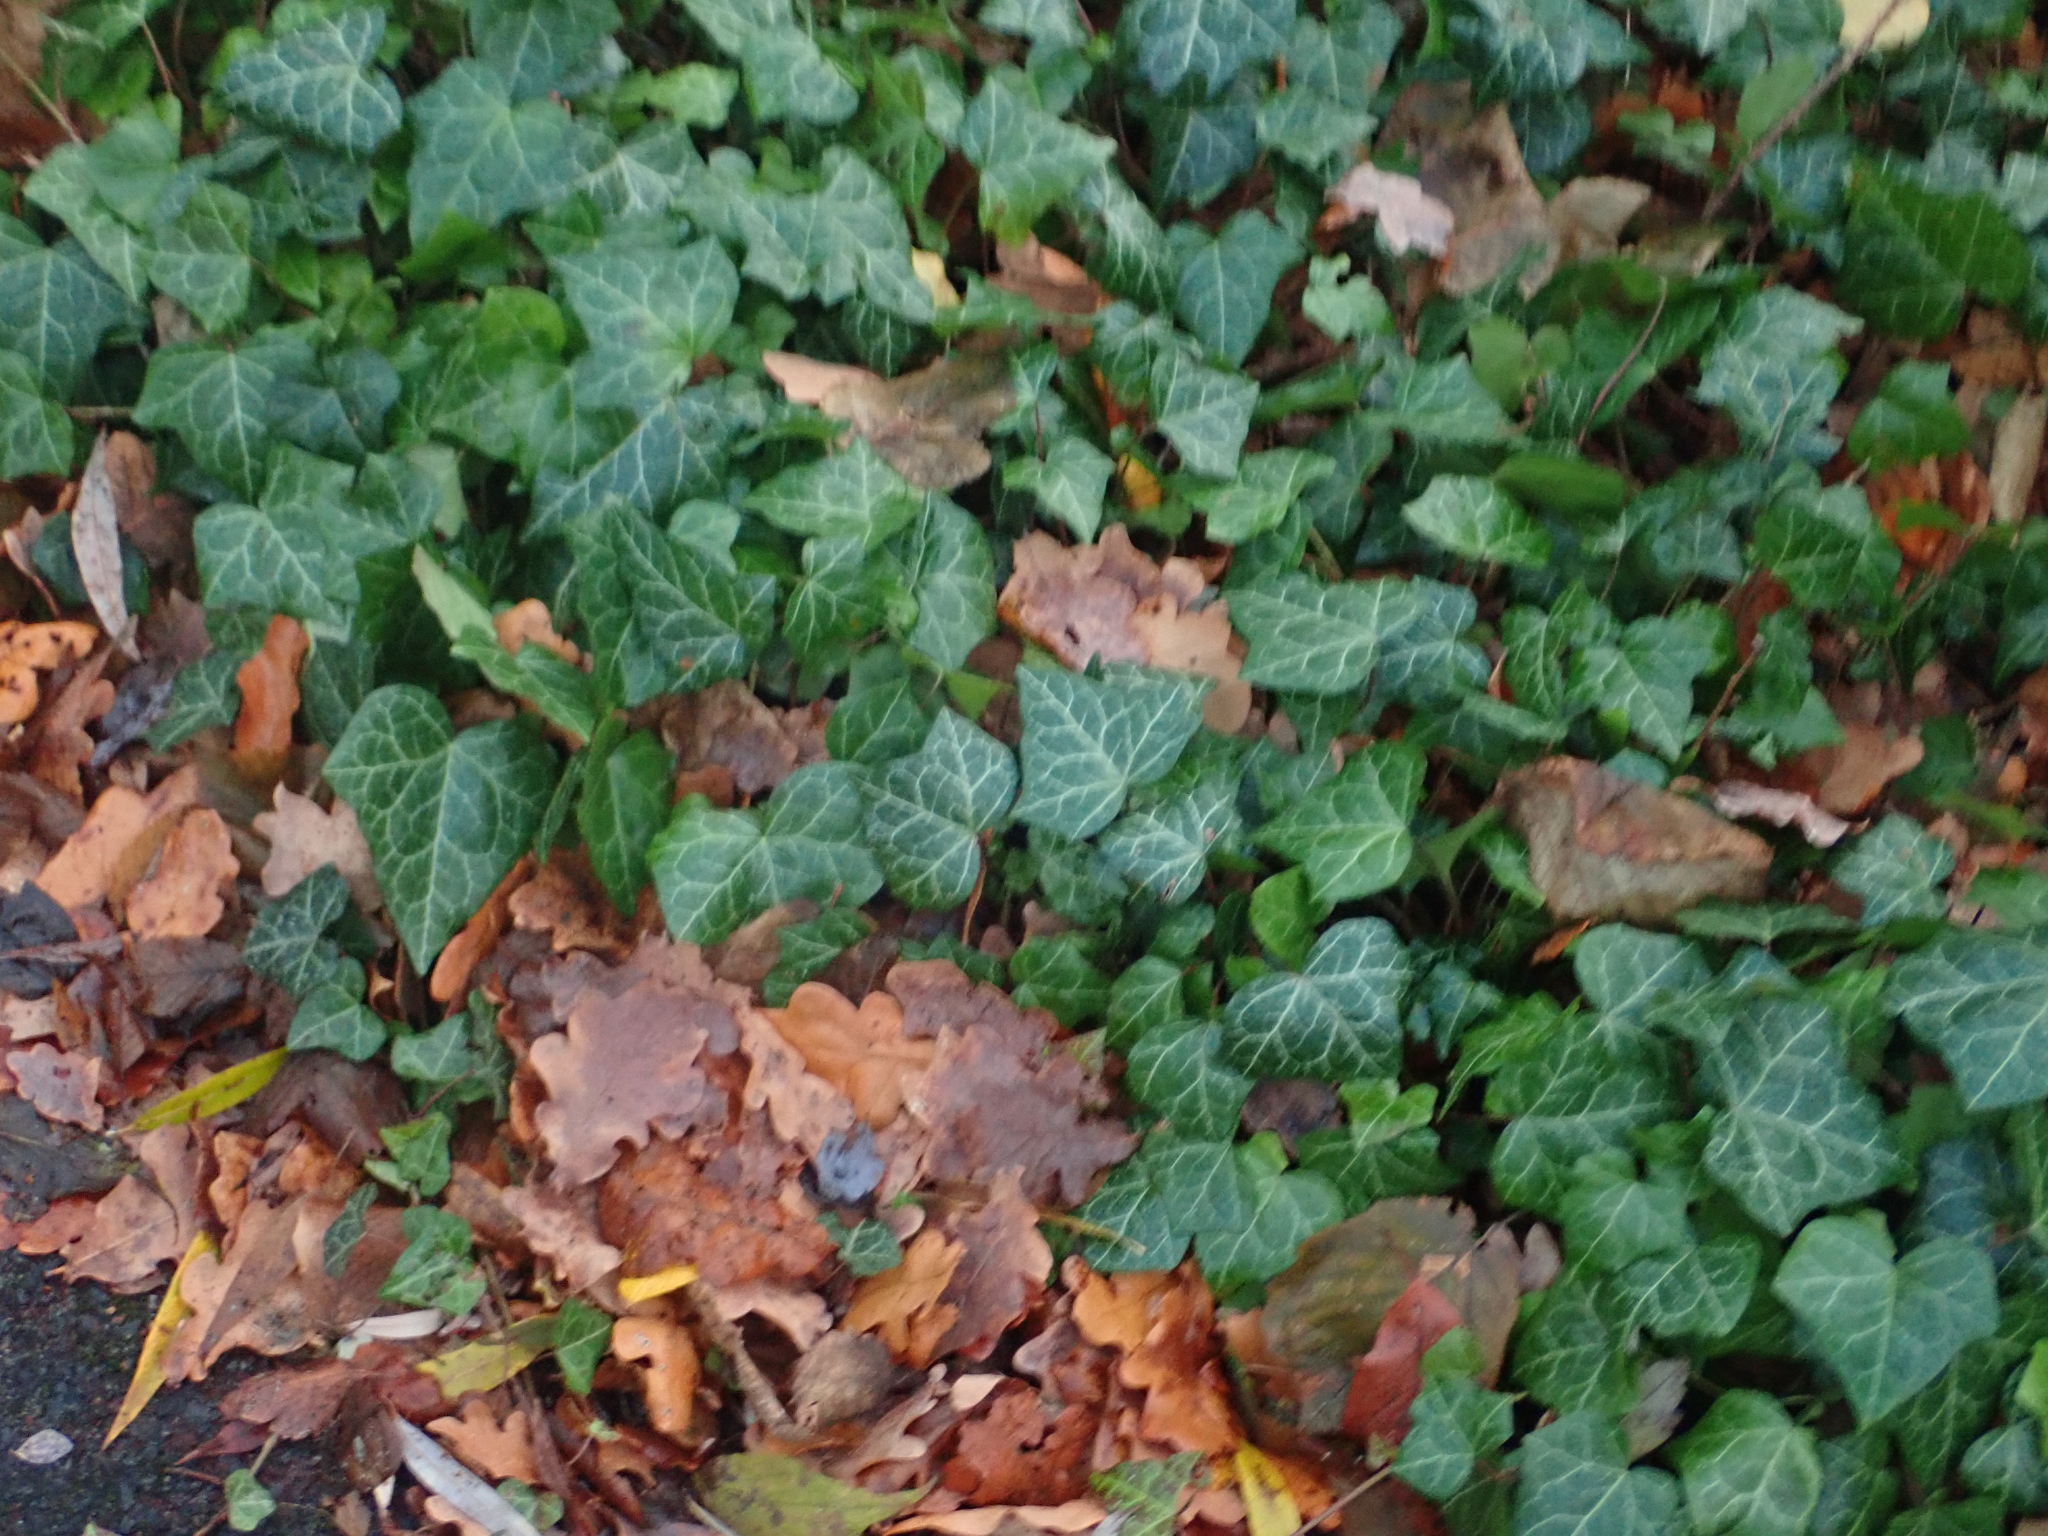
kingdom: Plantae
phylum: Tracheophyta
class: Magnoliopsida
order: Apiales
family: Araliaceae
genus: Hedera
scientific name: Hedera helix
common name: Ivy
